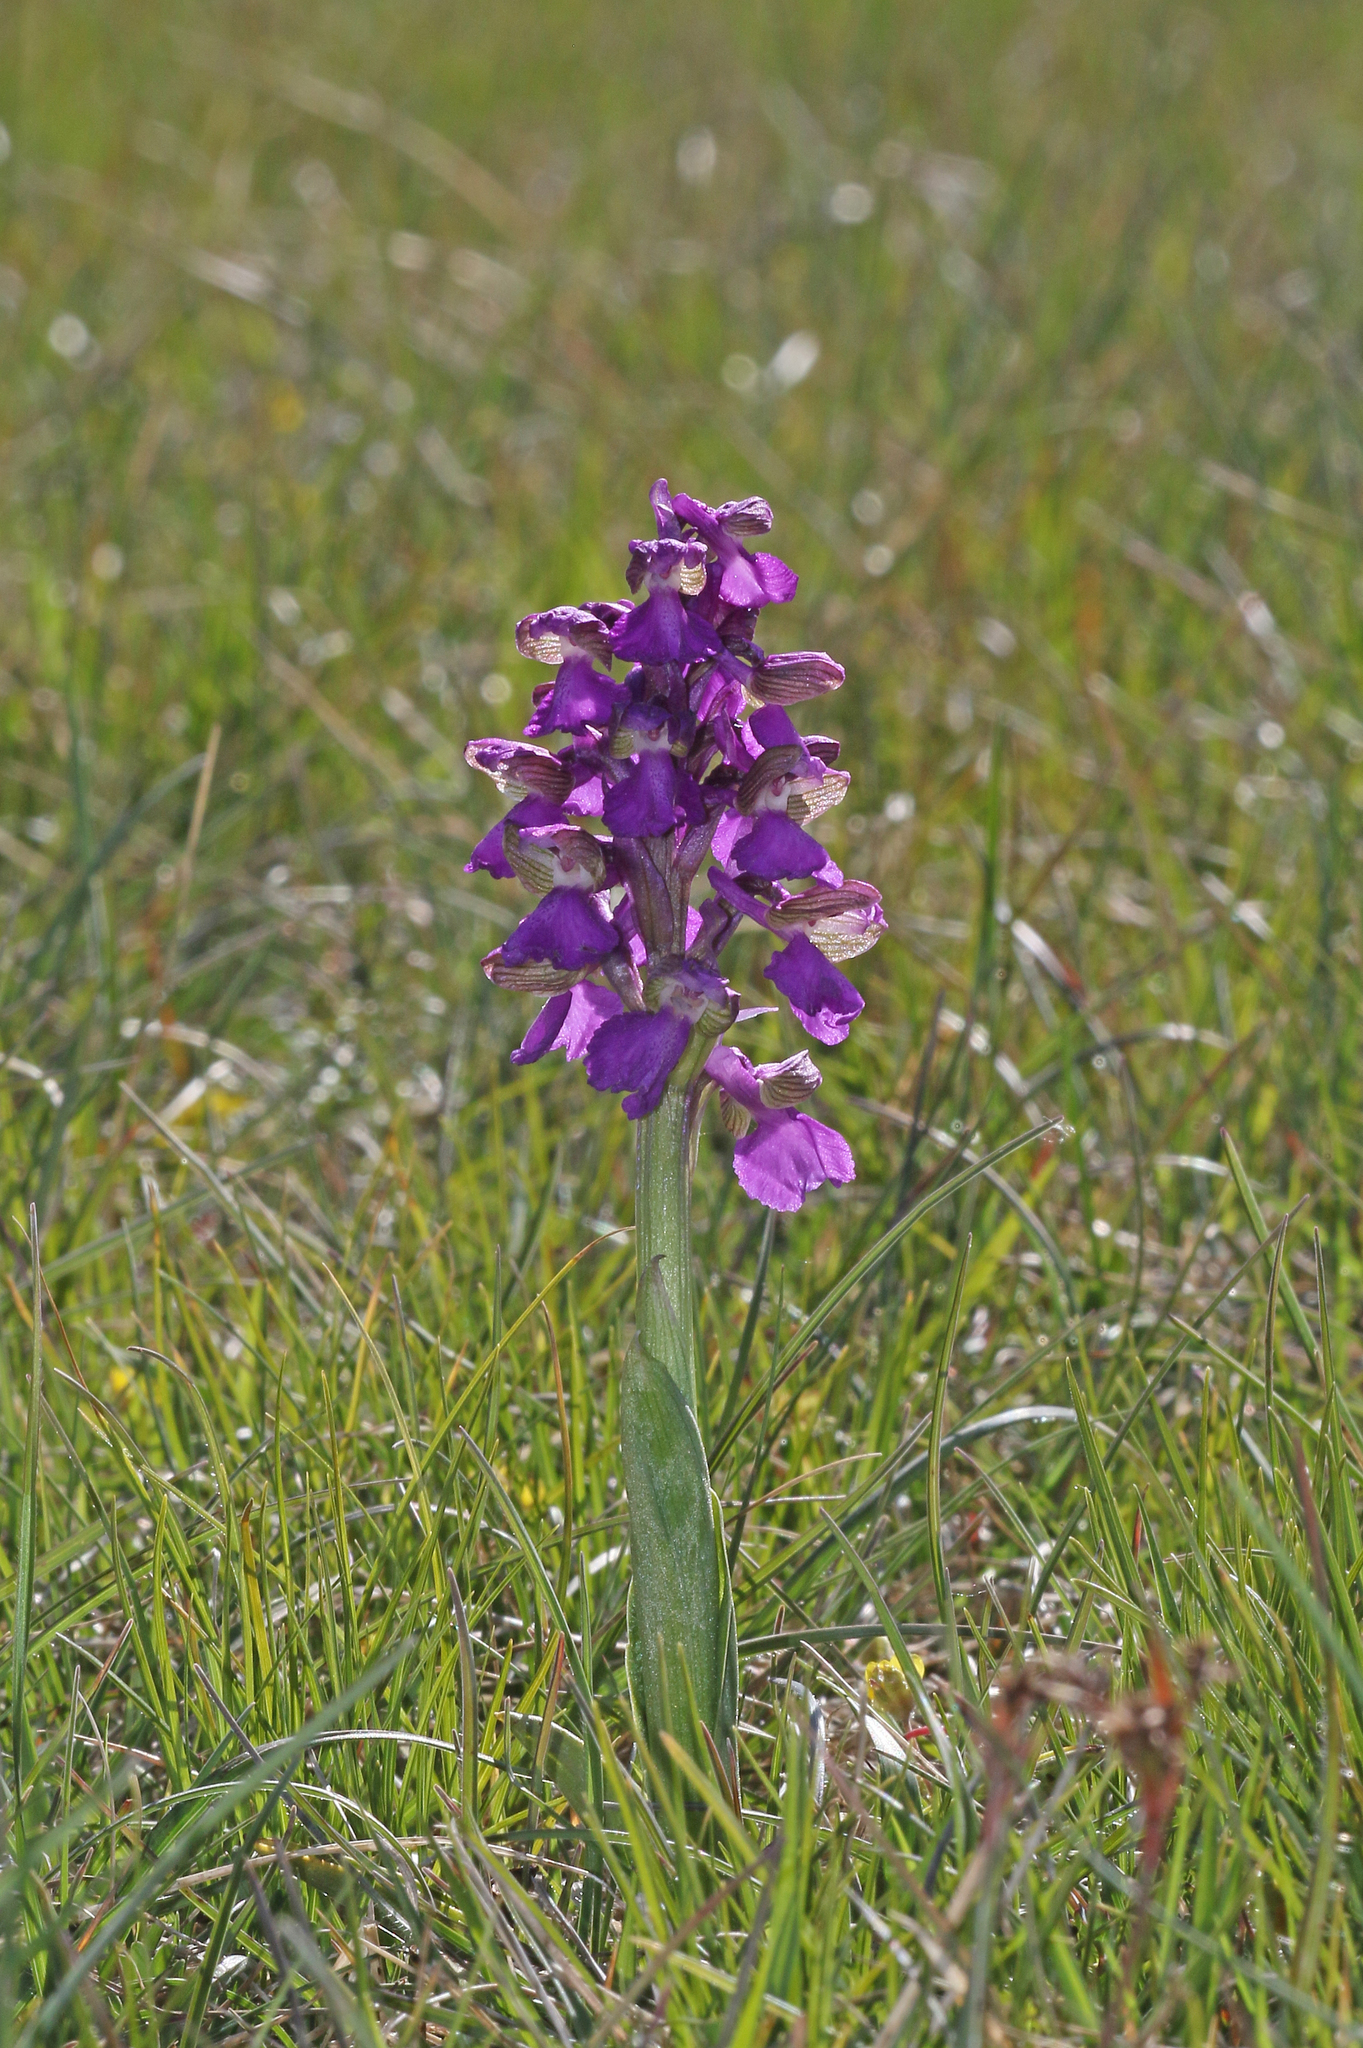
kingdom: Plantae
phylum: Tracheophyta
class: Liliopsida
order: Asparagales
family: Orchidaceae
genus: Anacamptis
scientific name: Anacamptis morio
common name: Green-winged orchid
